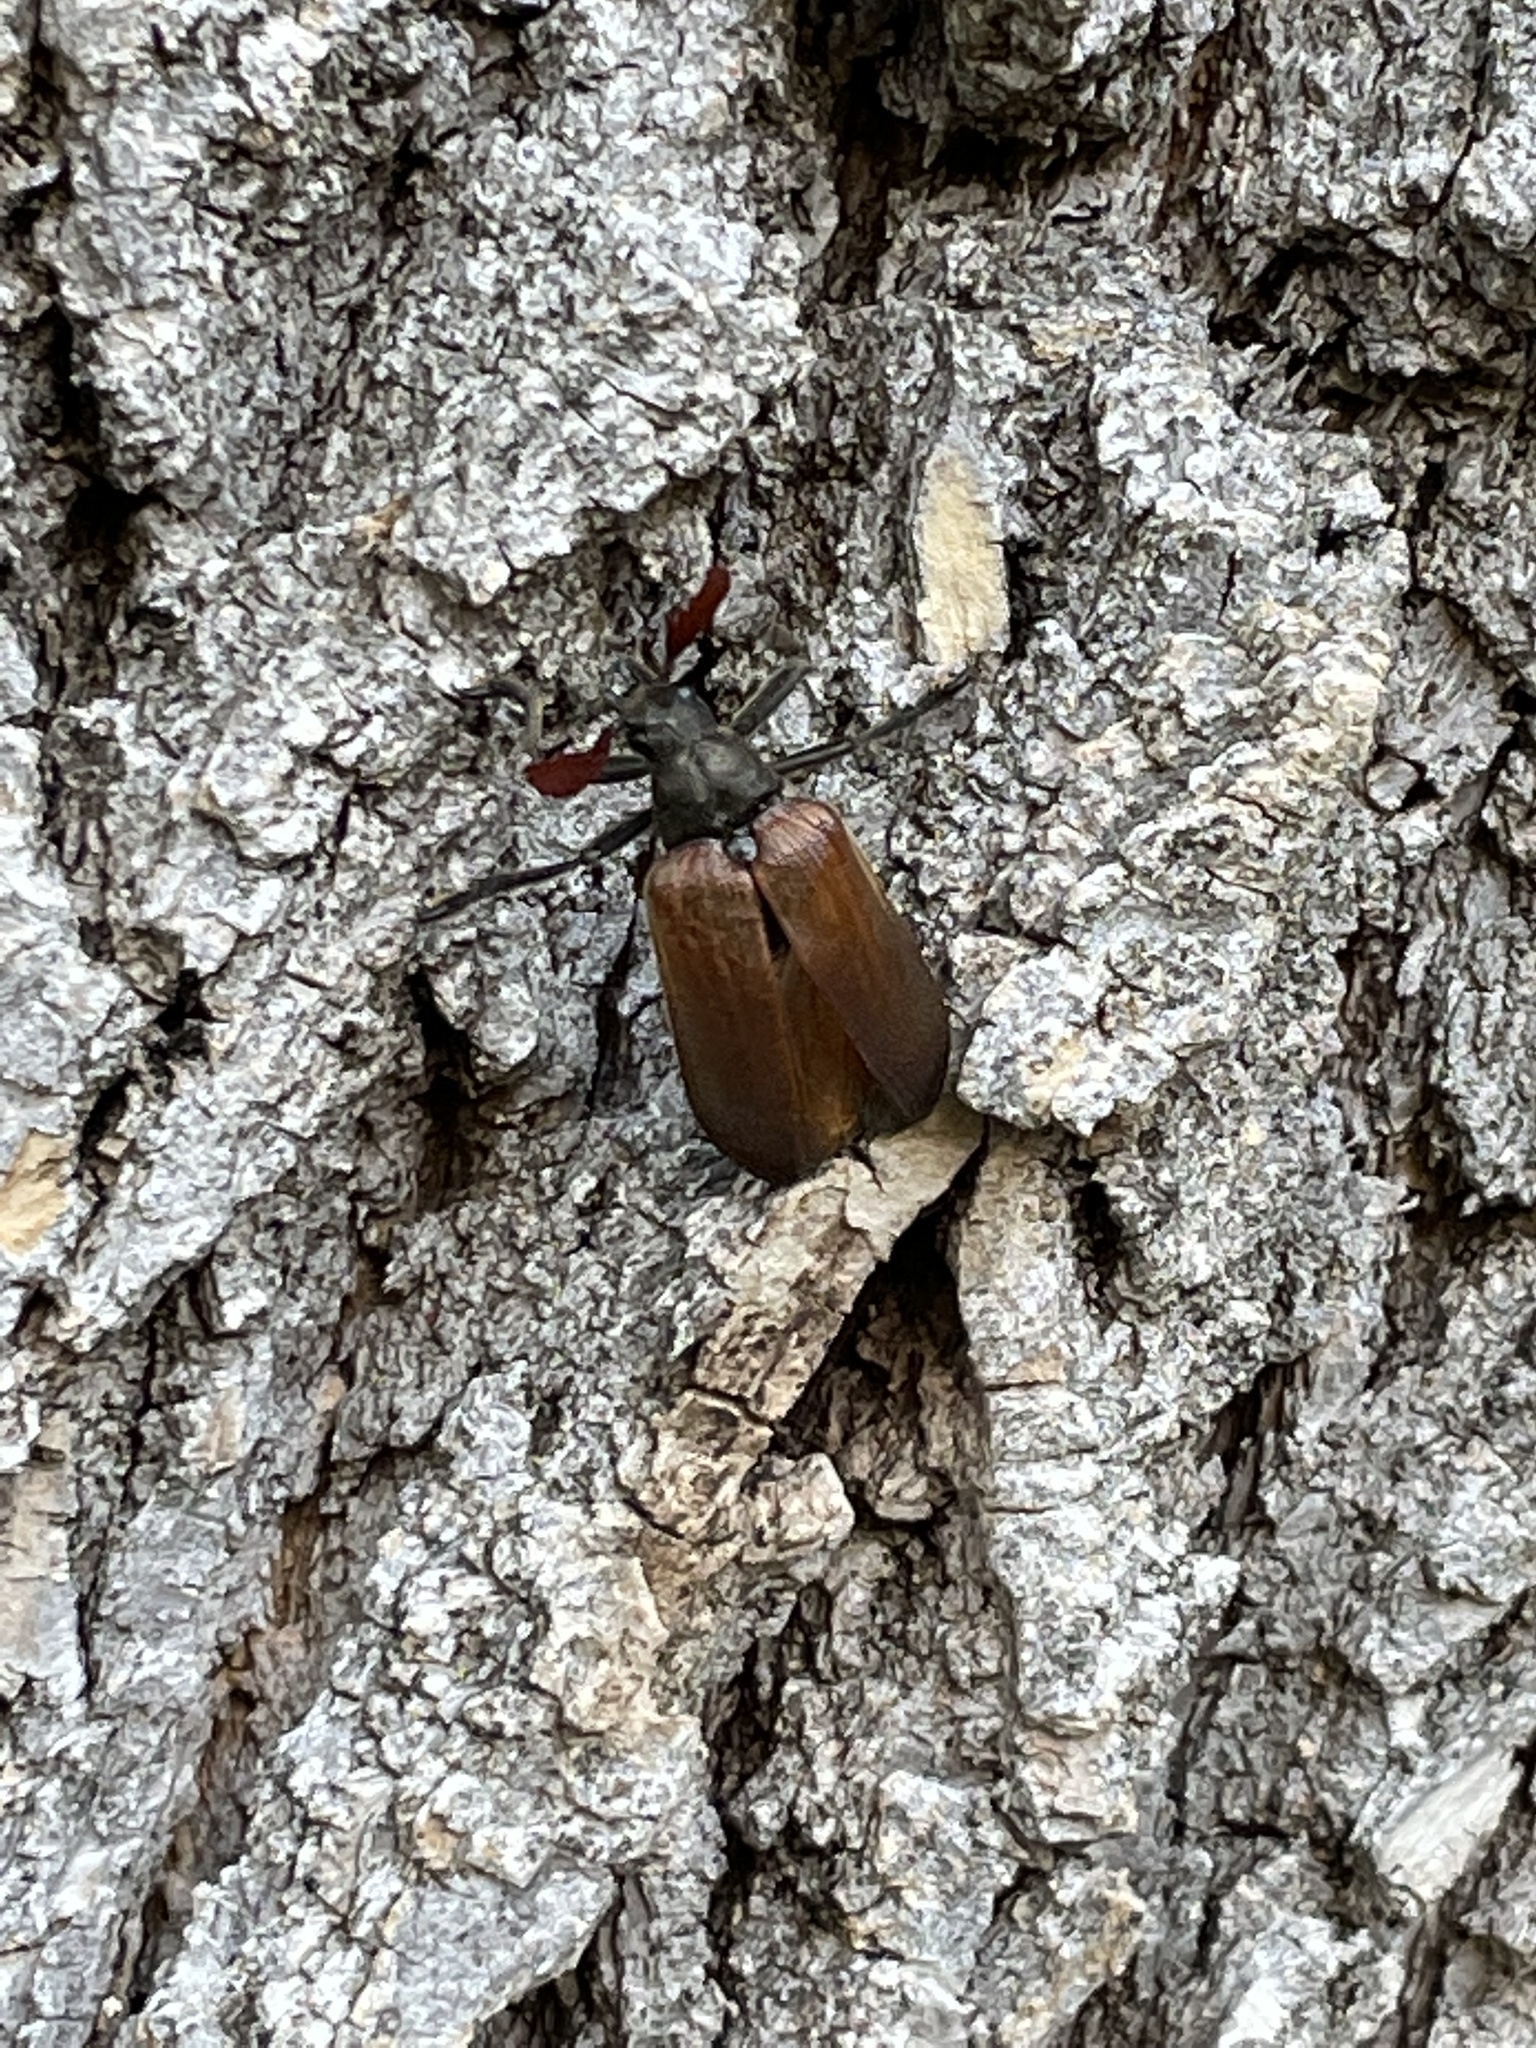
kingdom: Animalia
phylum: Arthropoda
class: Insecta
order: Coleoptera
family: Rhipiceridae
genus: Sandalus
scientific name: Sandalus niger
